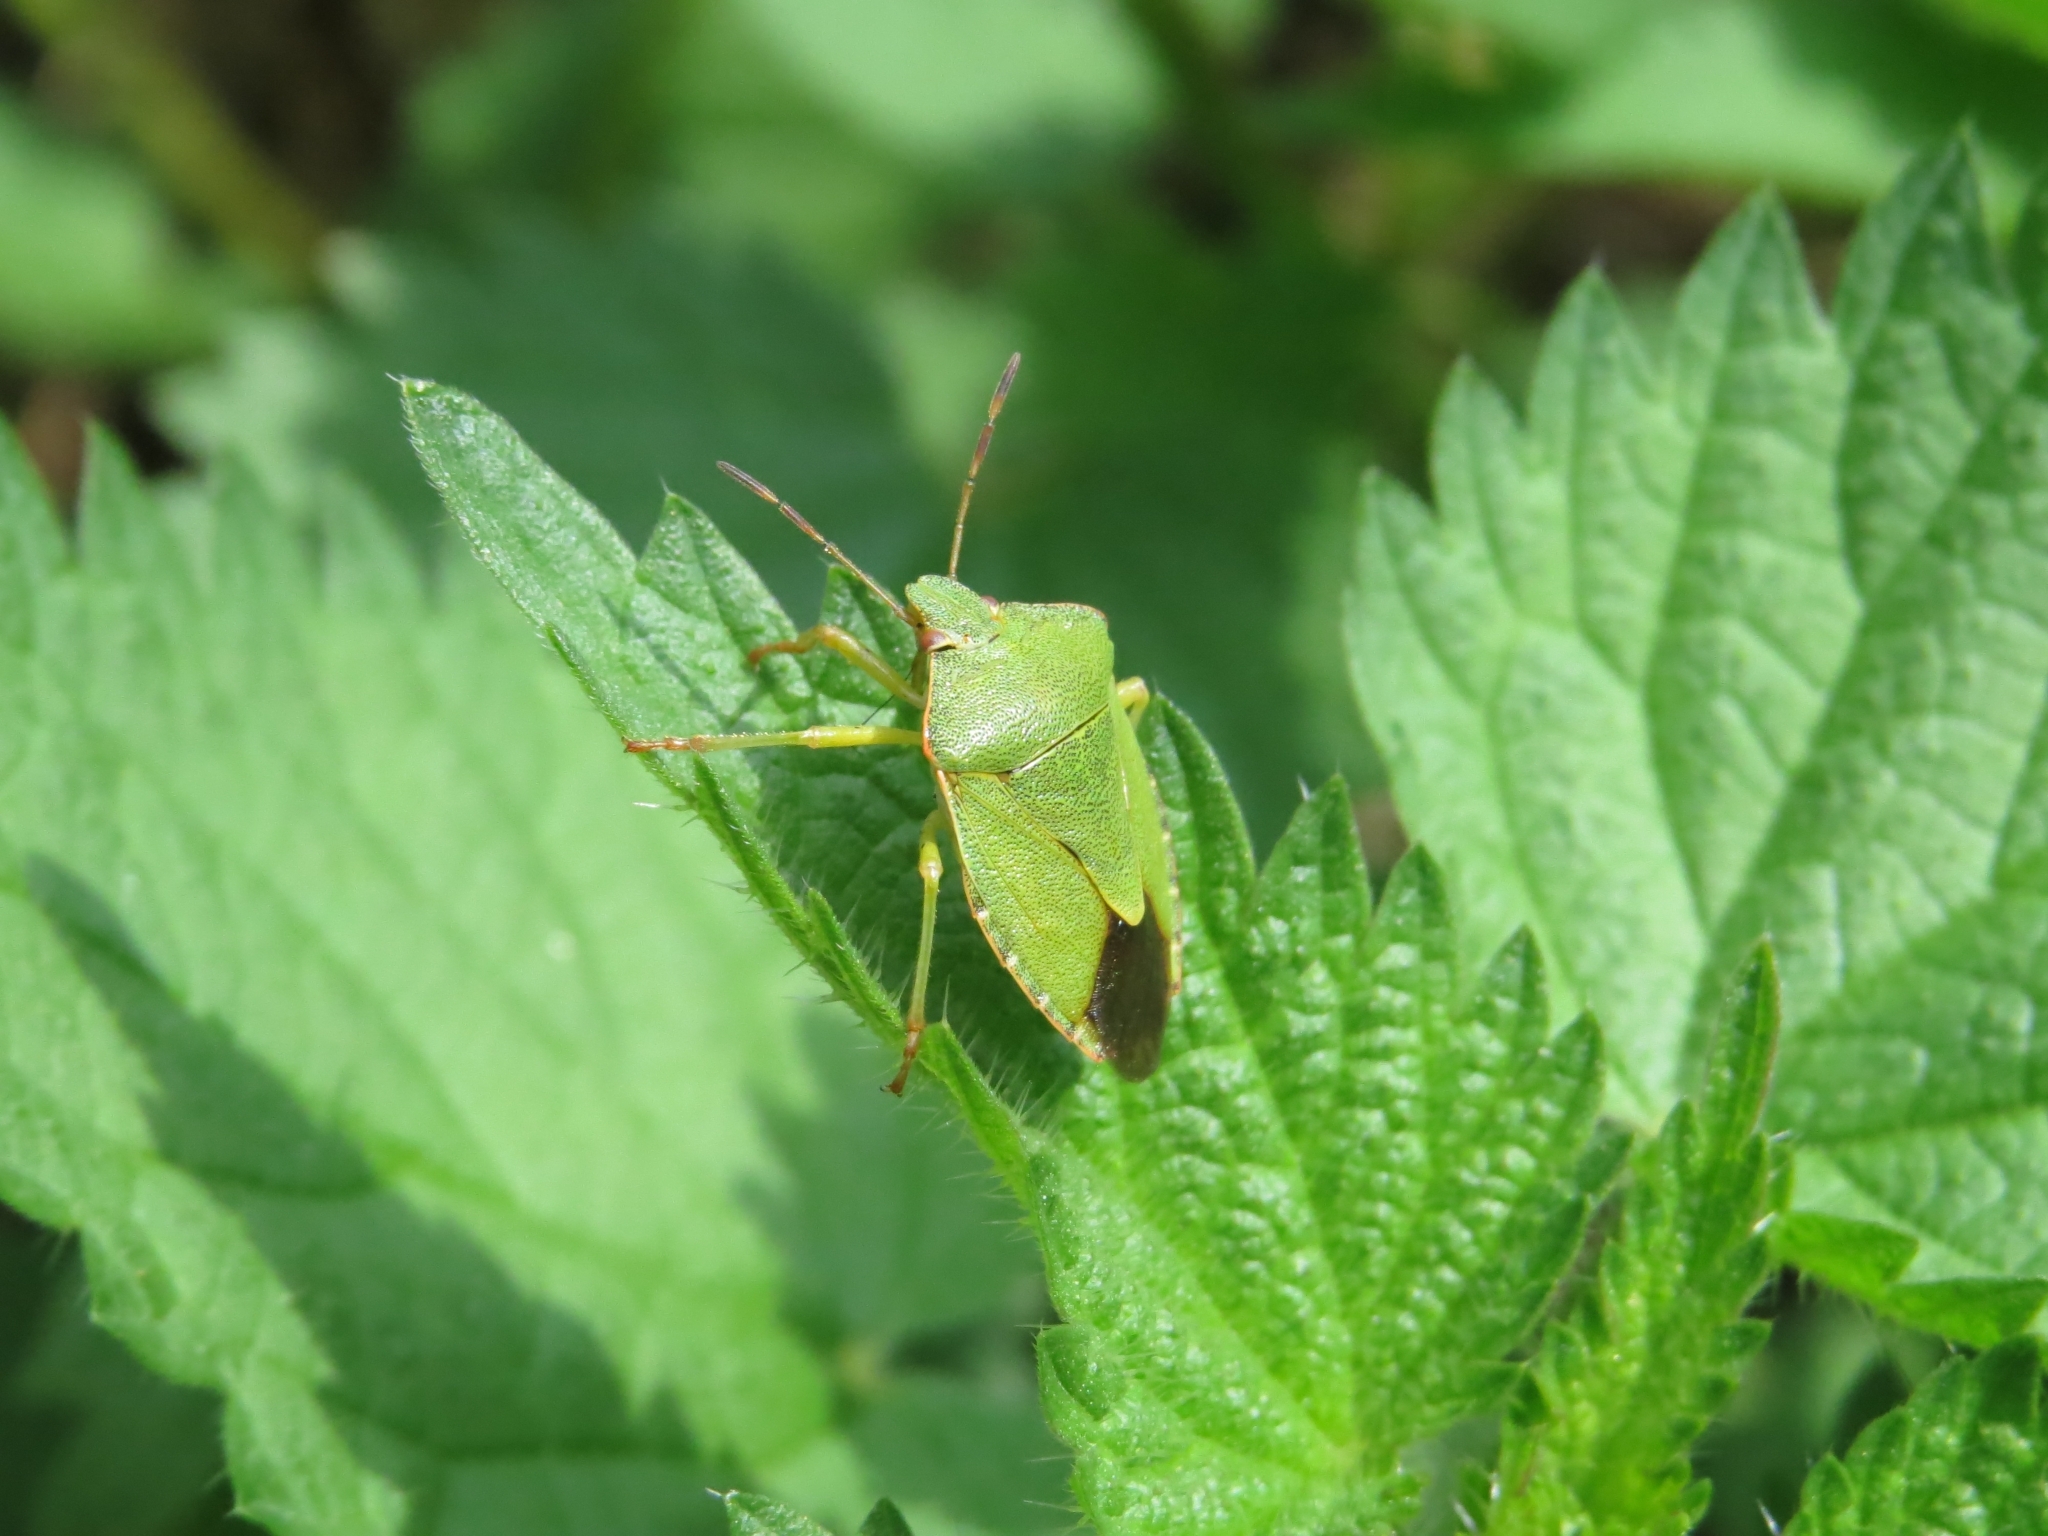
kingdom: Animalia
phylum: Arthropoda
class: Insecta
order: Hemiptera
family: Pentatomidae
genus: Palomena
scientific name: Palomena prasina
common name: Green shieldbug
